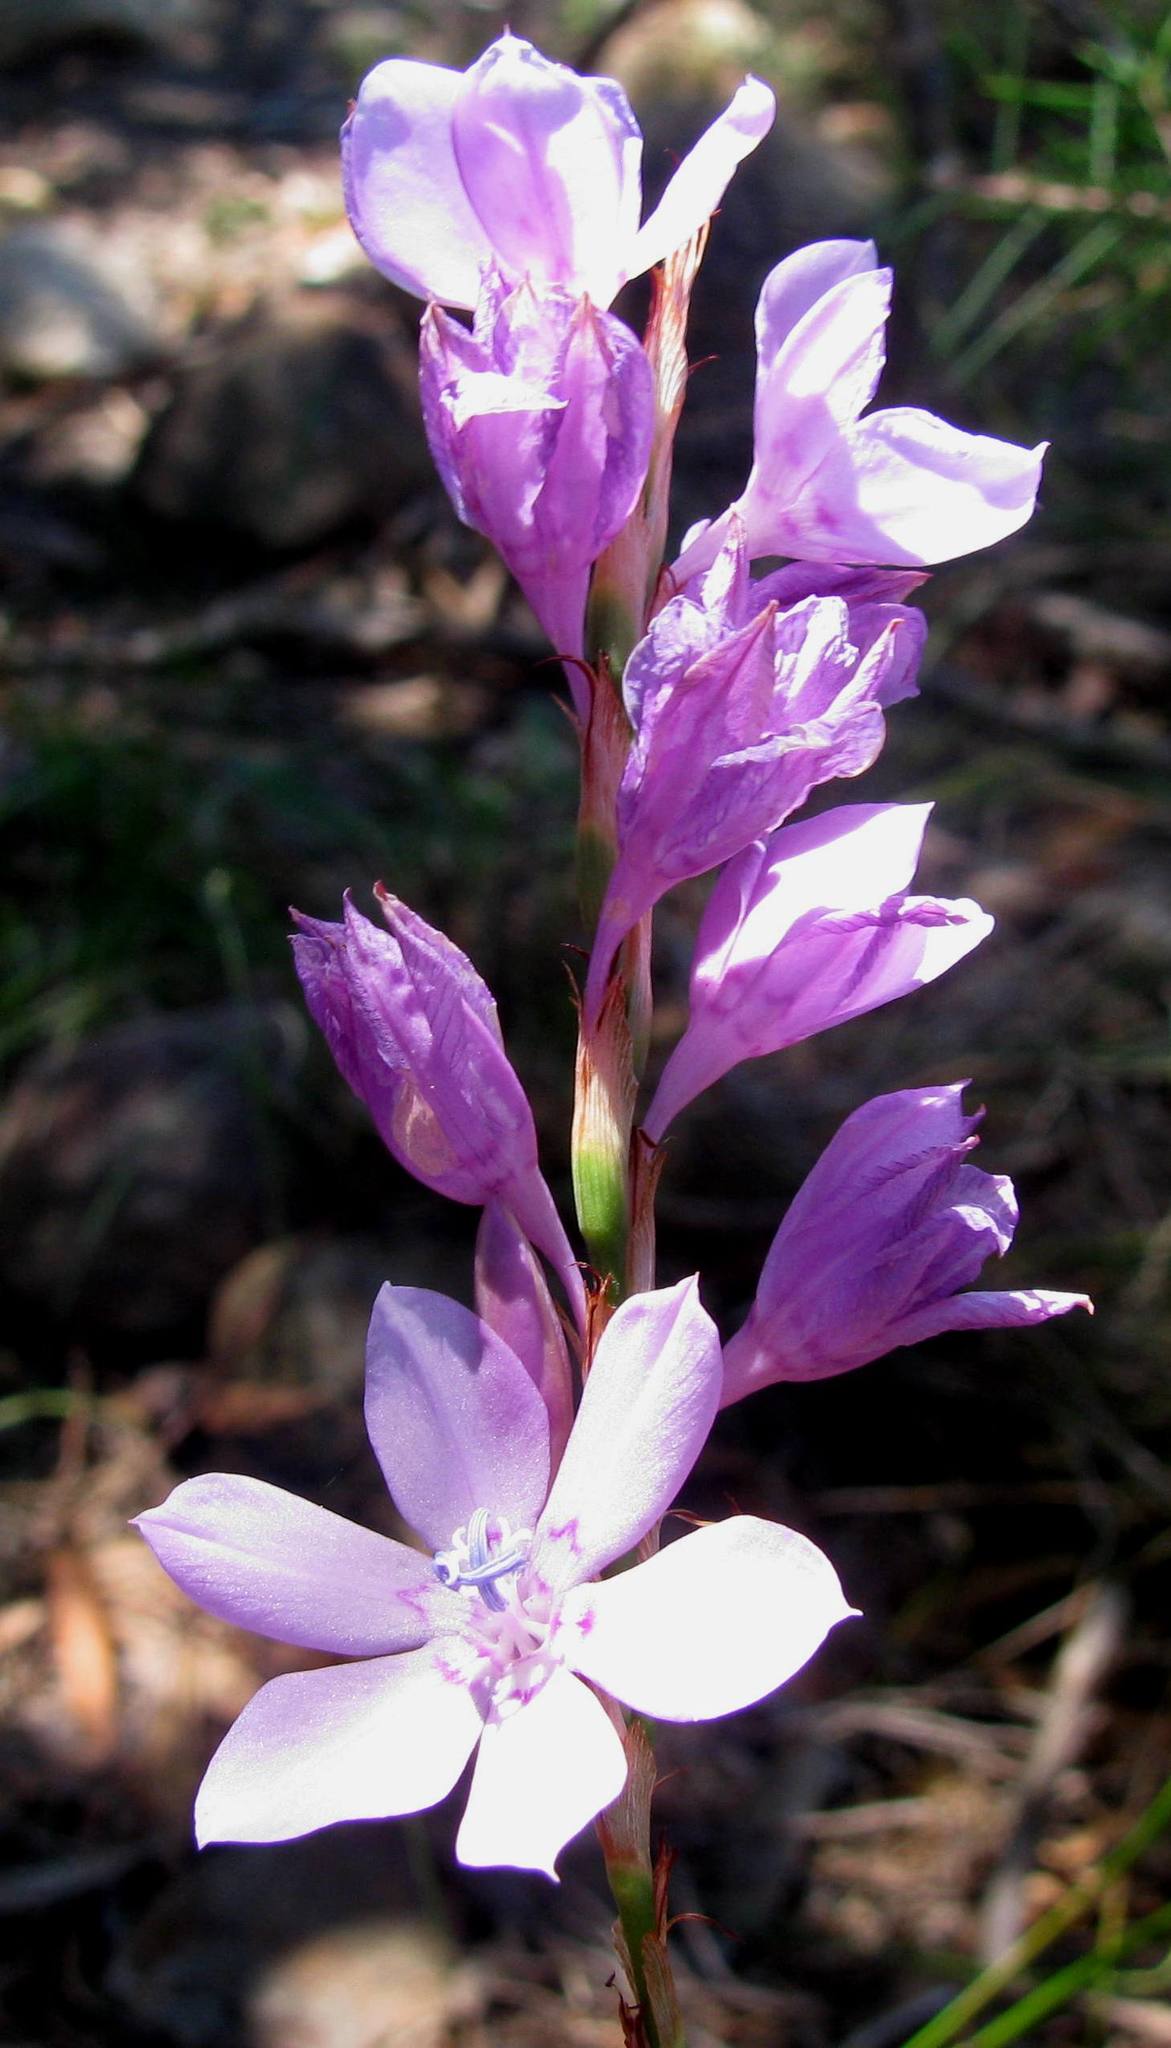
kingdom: Plantae
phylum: Tracheophyta
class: Liliopsida
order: Asparagales
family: Iridaceae
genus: Watsonia
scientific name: Watsonia marginata
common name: Fragrant bugle-lily
